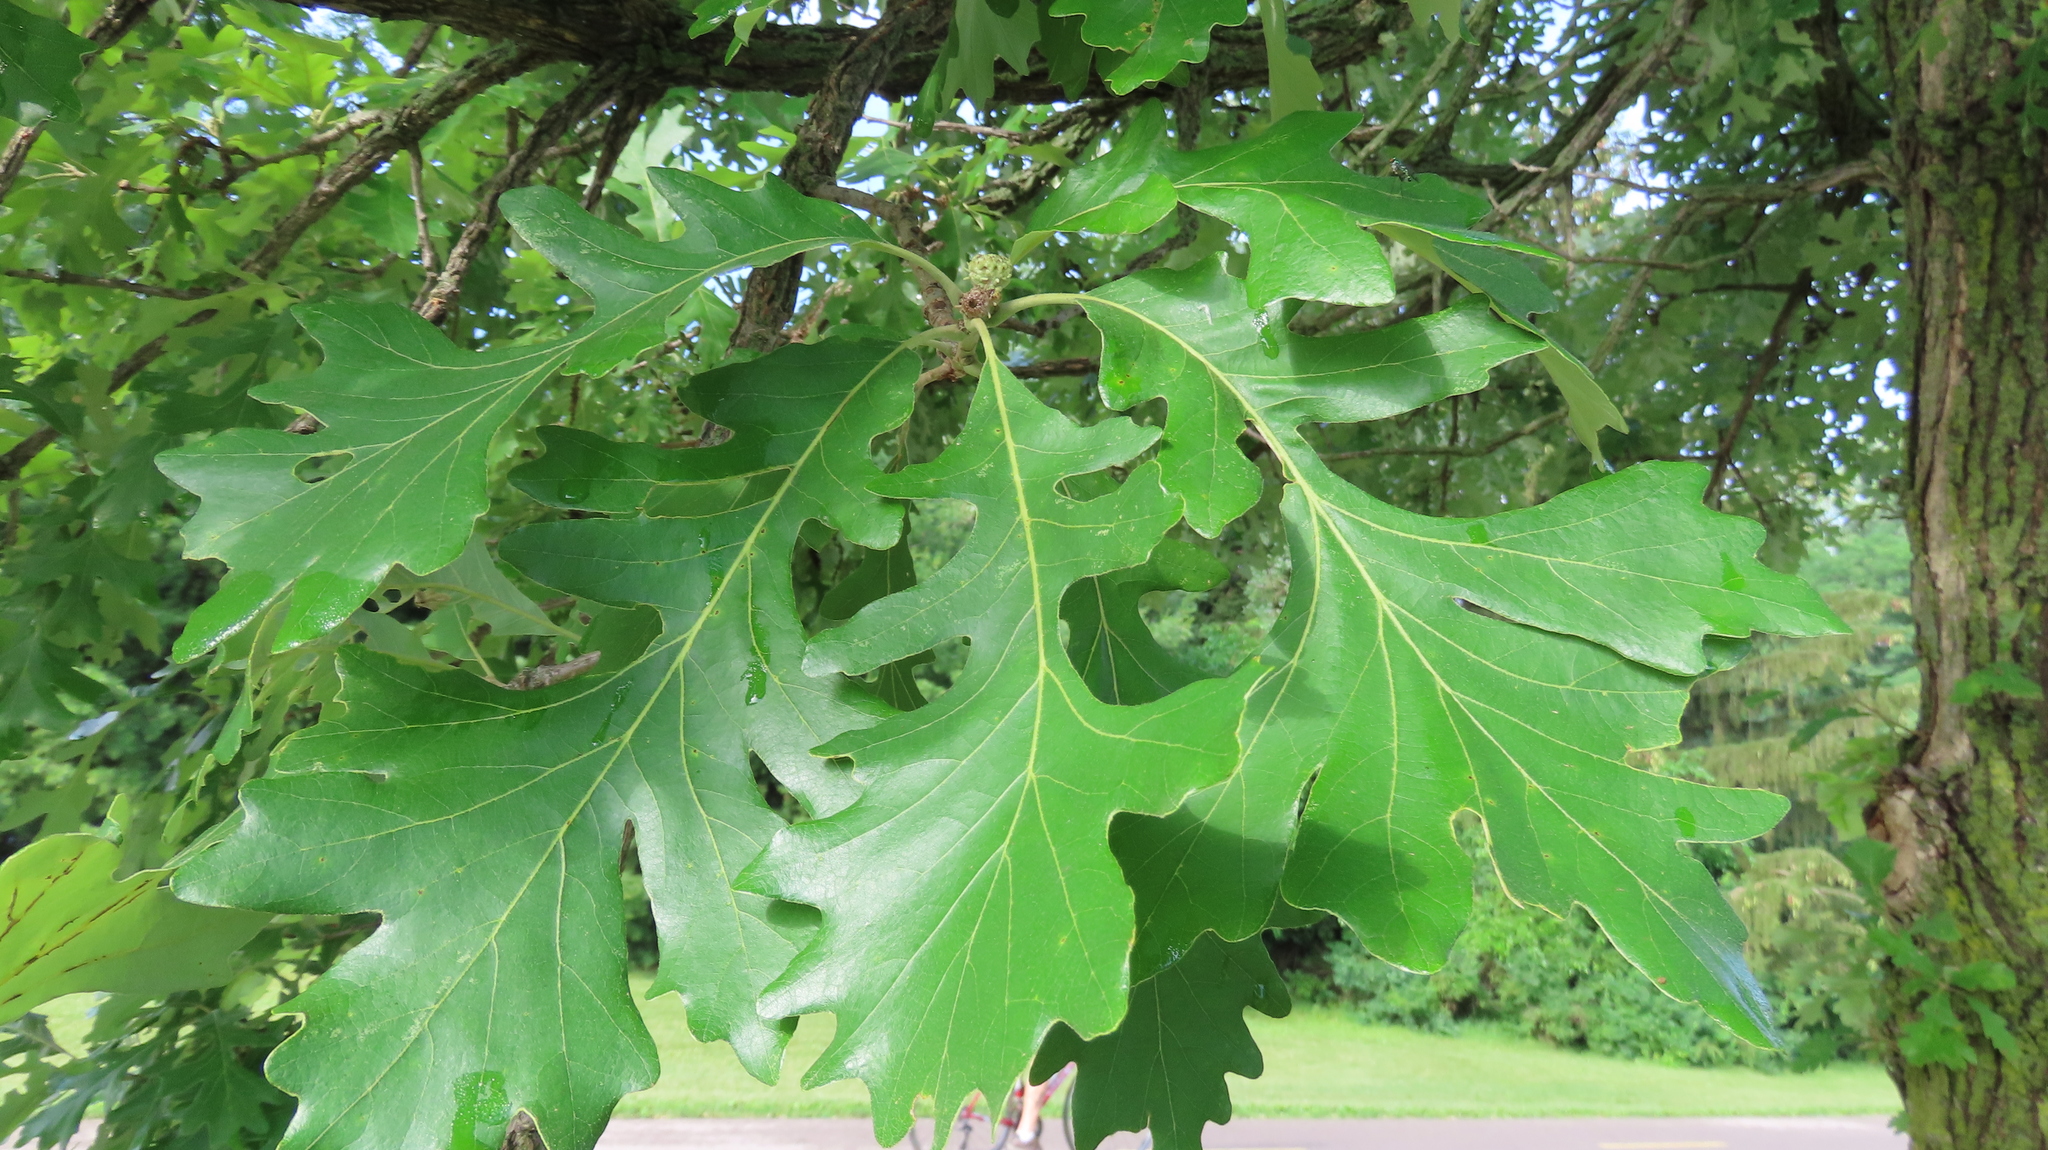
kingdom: Plantae
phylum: Tracheophyta
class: Magnoliopsida
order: Fagales
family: Fagaceae
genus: Quercus
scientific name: Quercus macrocarpa
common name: Bur oak
